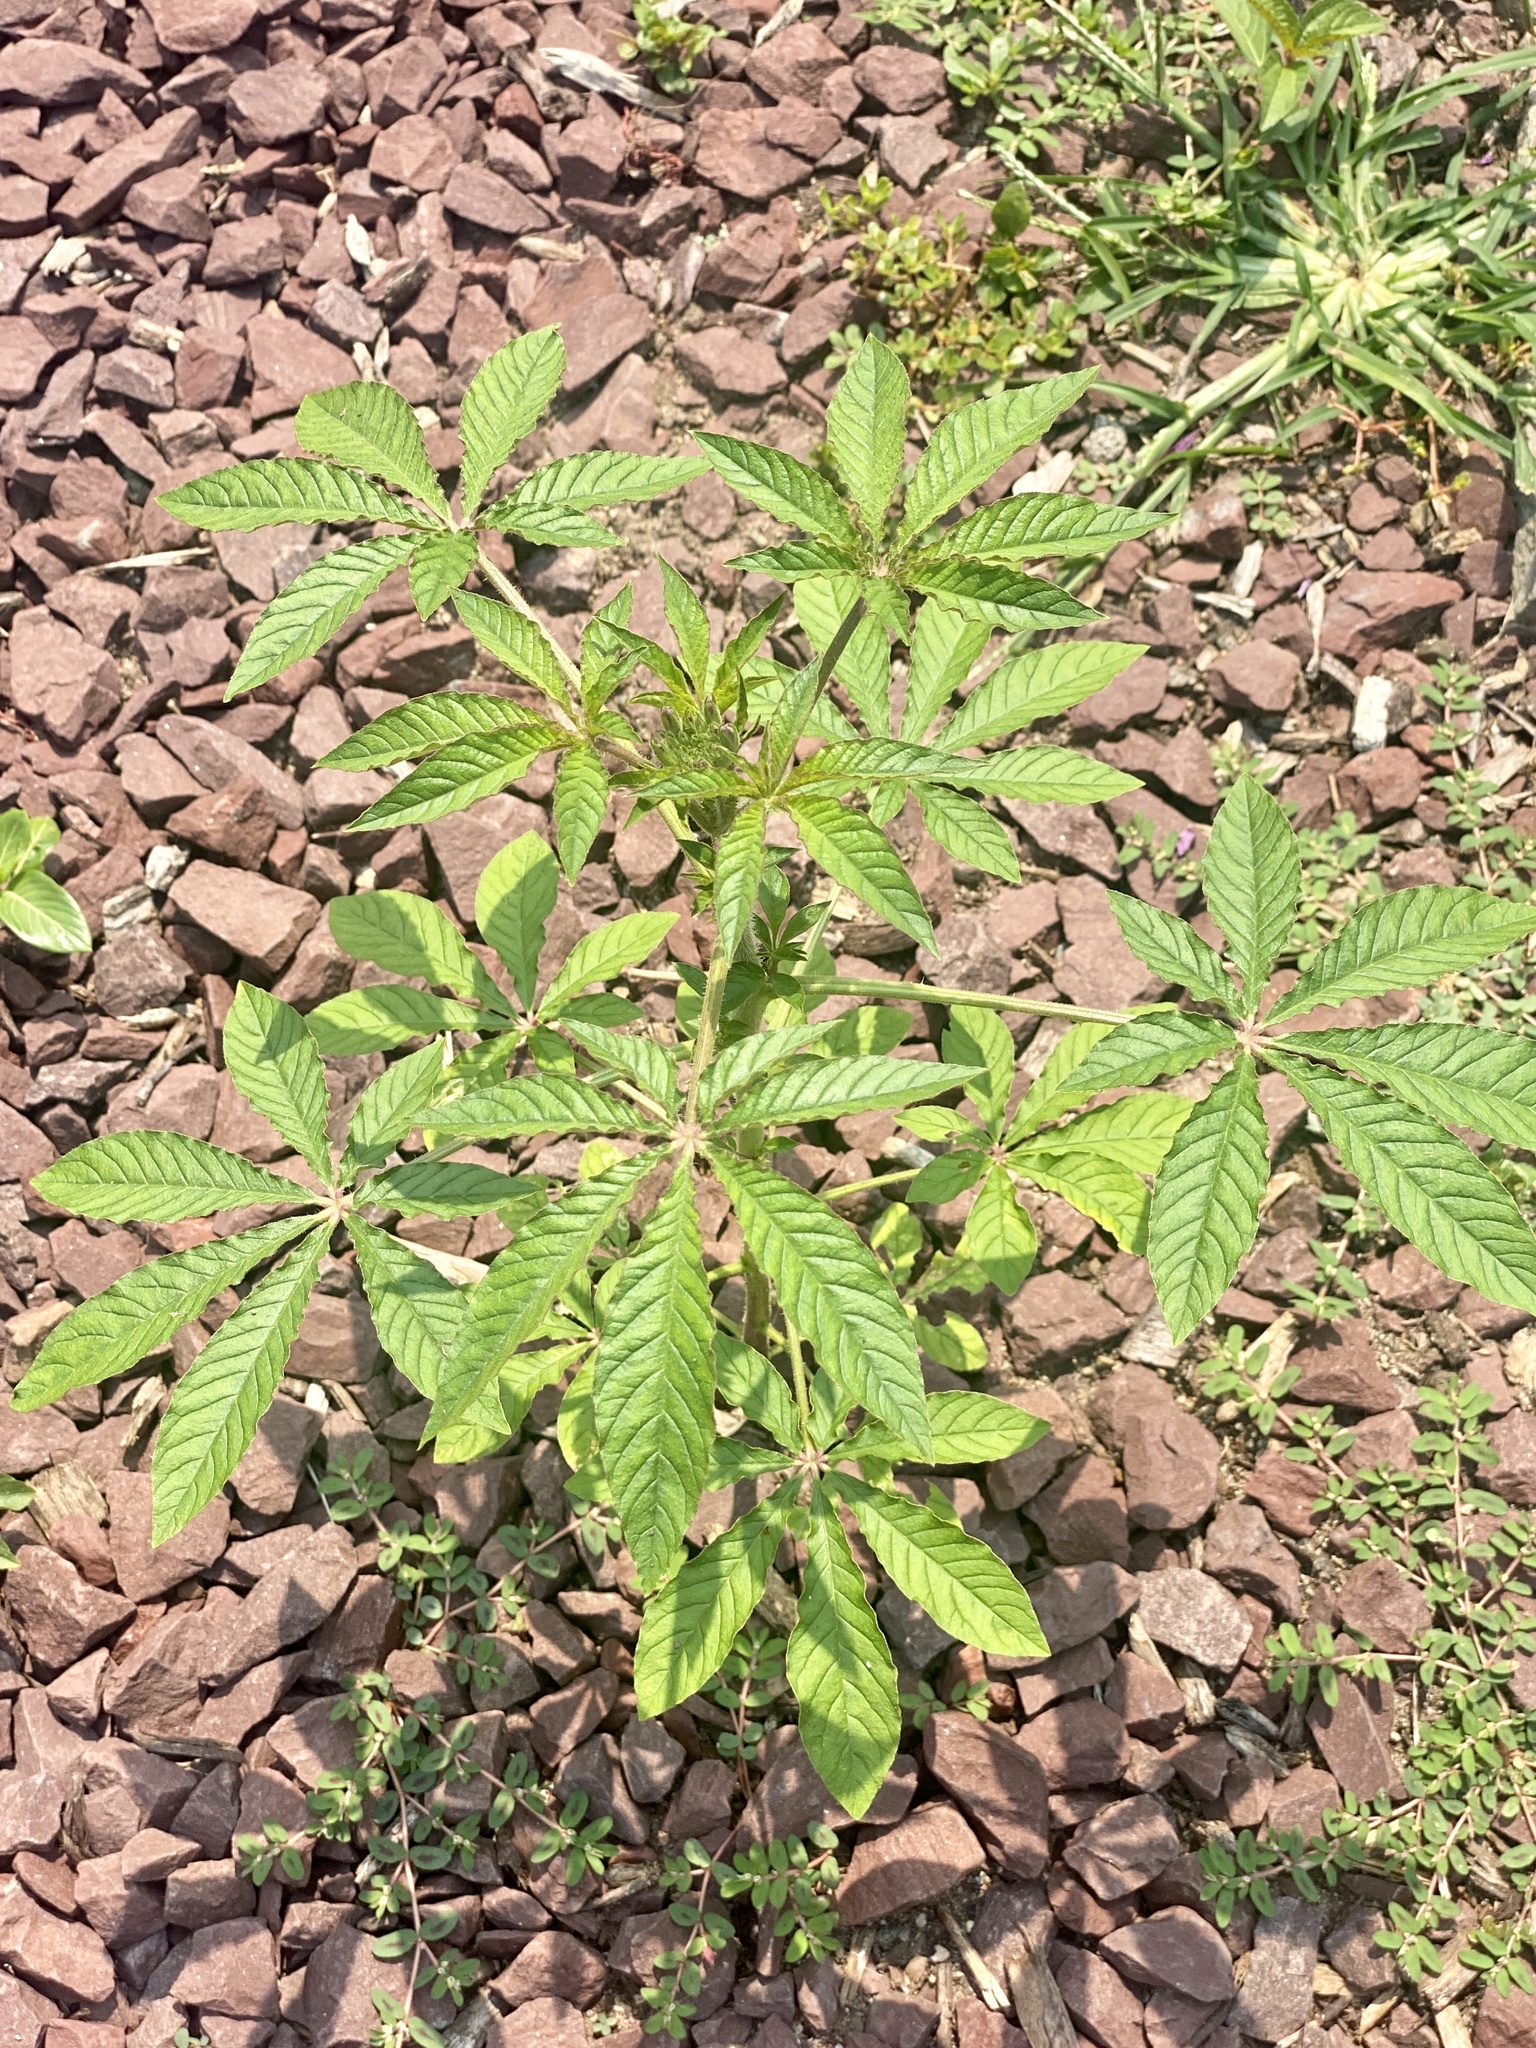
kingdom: Plantae
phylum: Tracheophyta
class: Magnoliopsida
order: Brassicales
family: Cleomaceae
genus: Tarenaya
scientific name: Tarenaya houtteana
